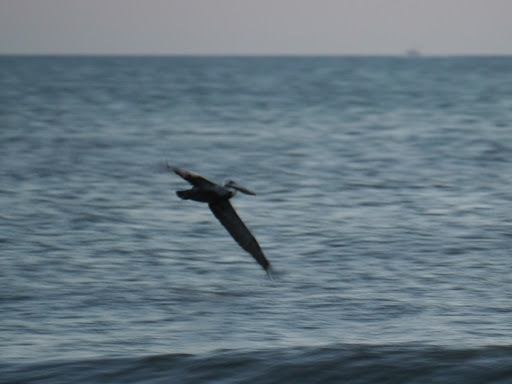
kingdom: Animalia
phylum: Chordata
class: Aves
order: Pelecaniformes
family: Pelecanidae
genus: Pelecanus
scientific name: Pelecanus occidentalis
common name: Brown pelican
